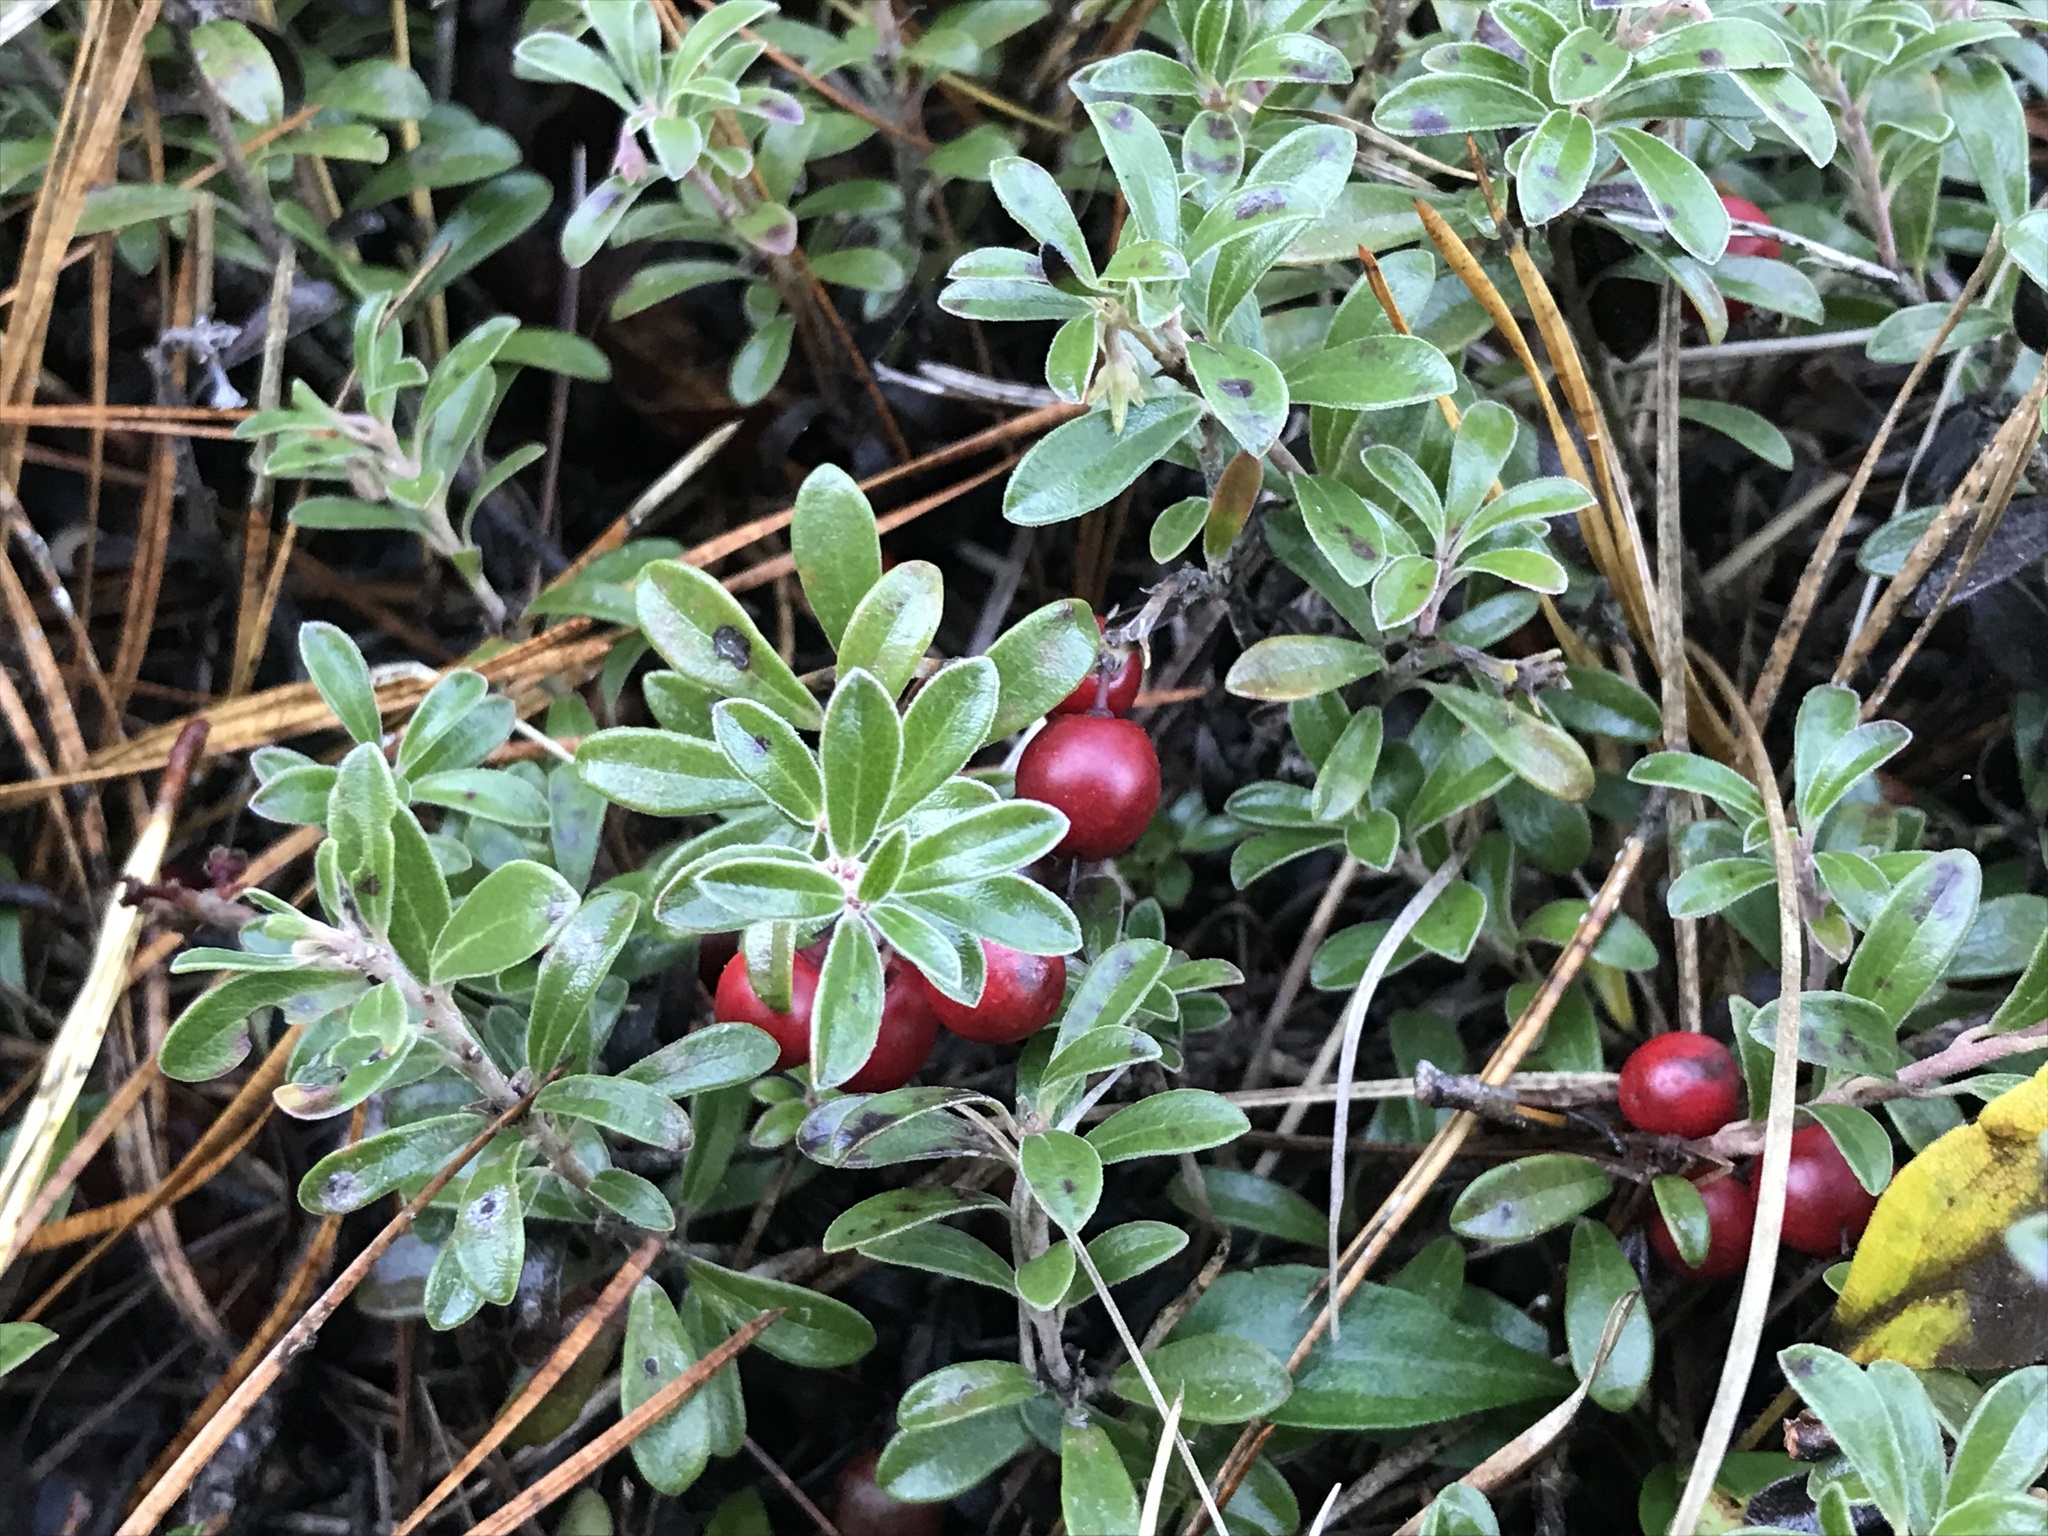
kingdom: Plantae
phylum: Tracheophyta
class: Magnoliopsida
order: Ericales
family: Ericaceae
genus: Arctostaphylos
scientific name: Arctostaphylos uva-ursi
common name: Bearberry
